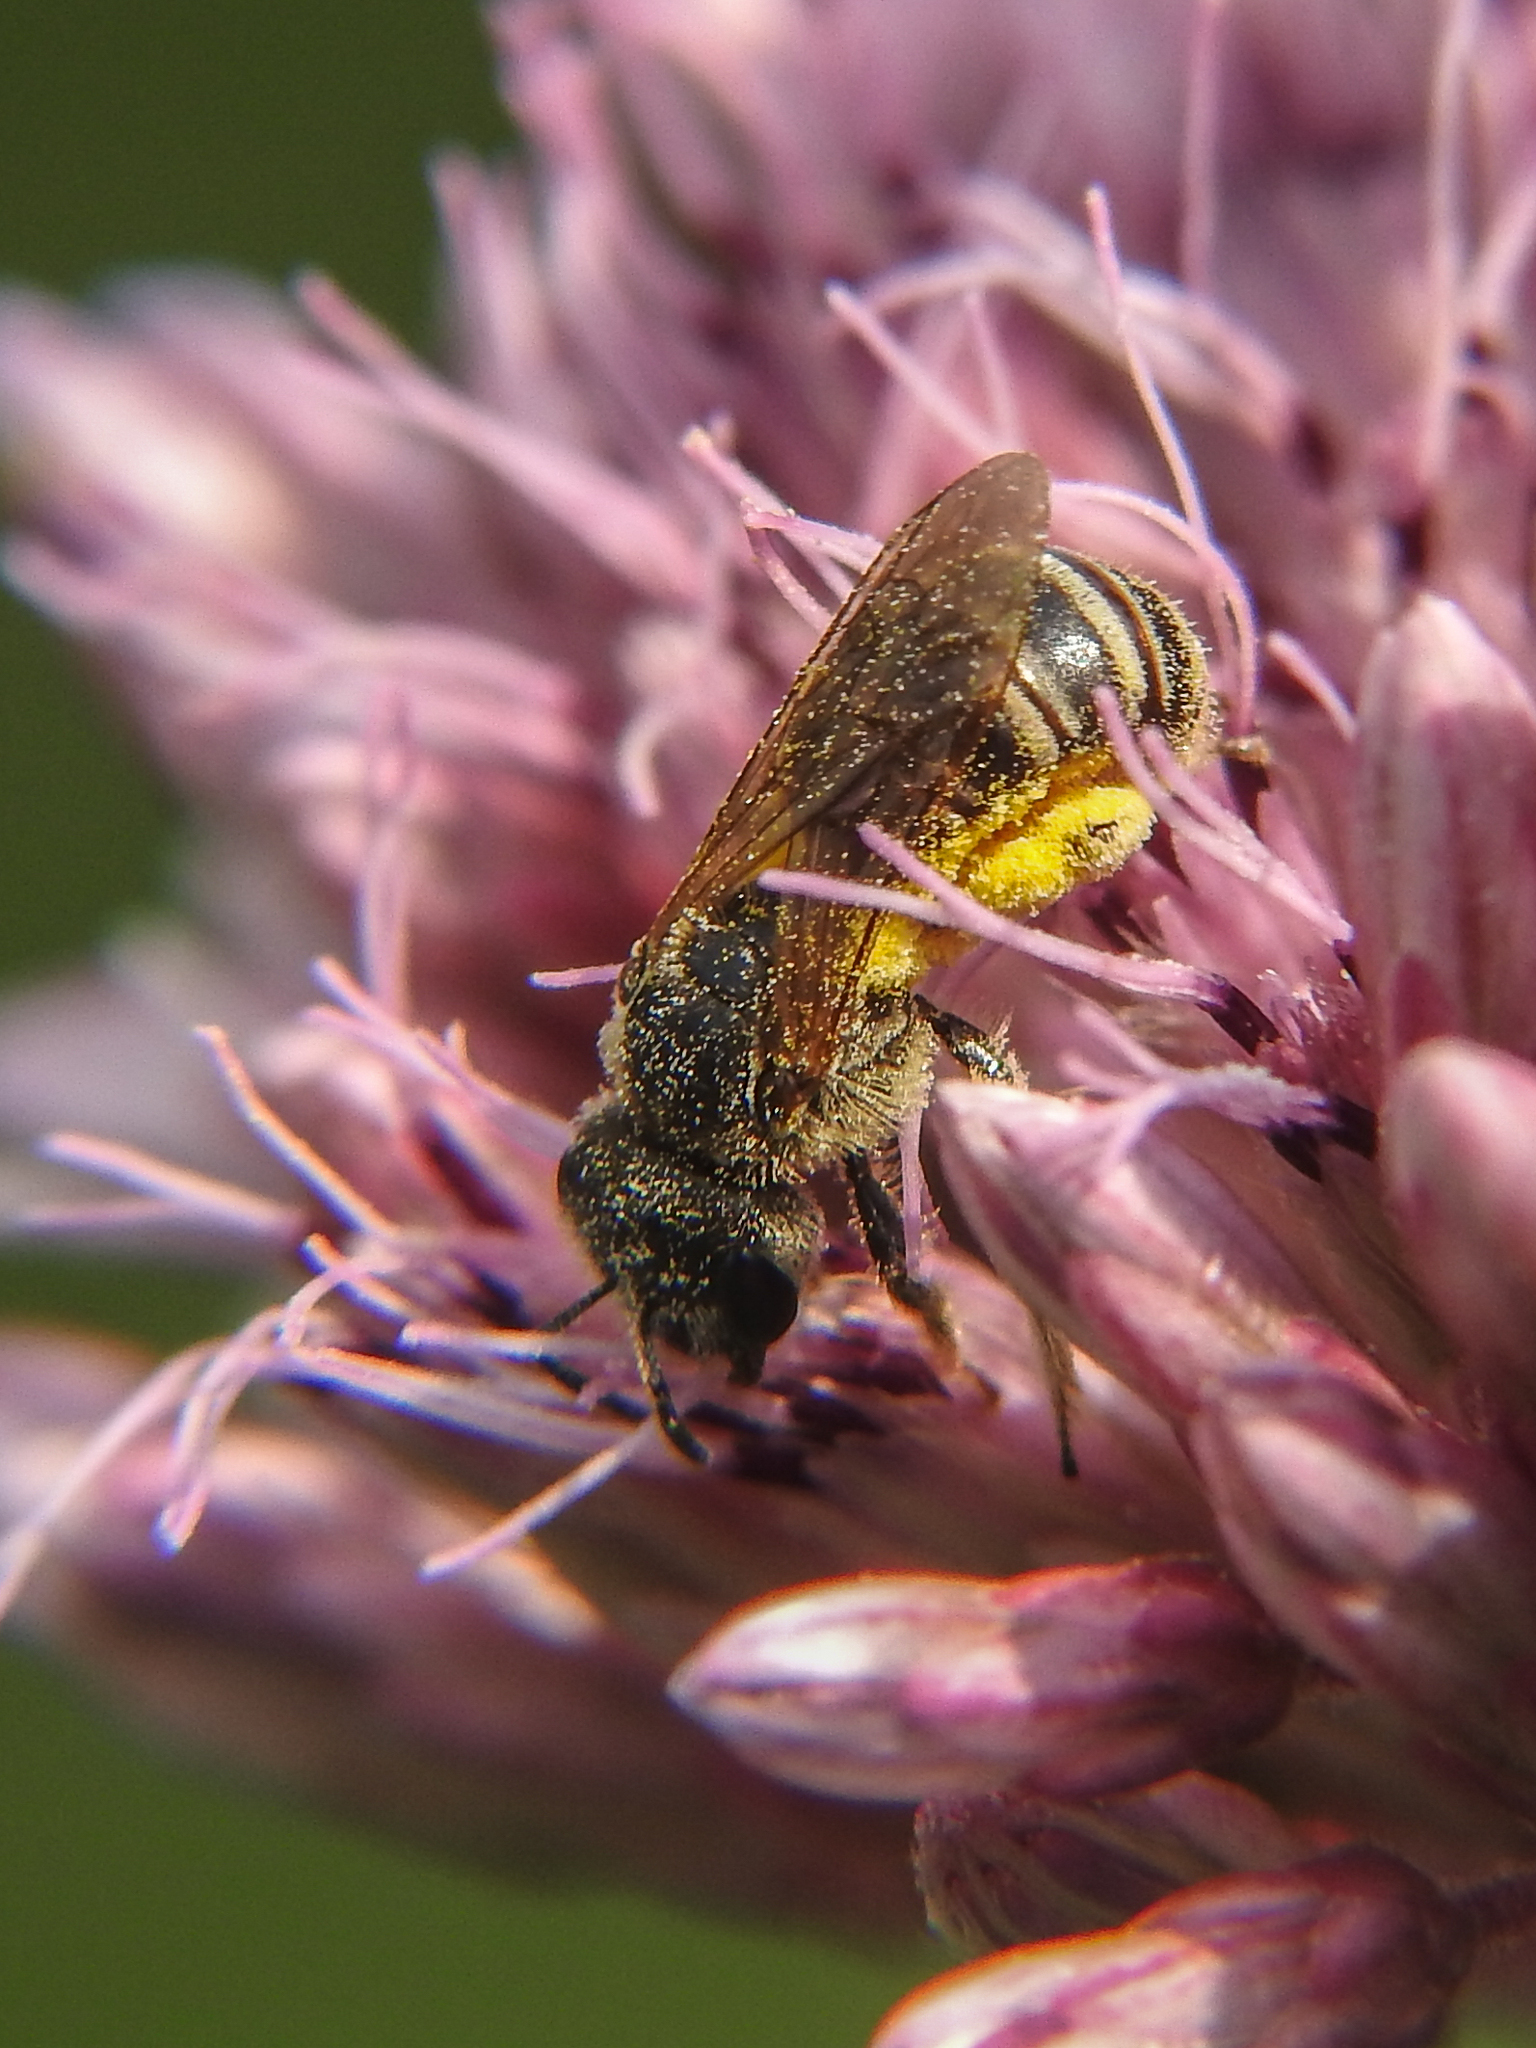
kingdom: Animalia
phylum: Arthropoda
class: Insecta
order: Hymenoptera
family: Halictidae
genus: Halictus
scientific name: Halictus ligatus
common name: Ligated furrow bee
